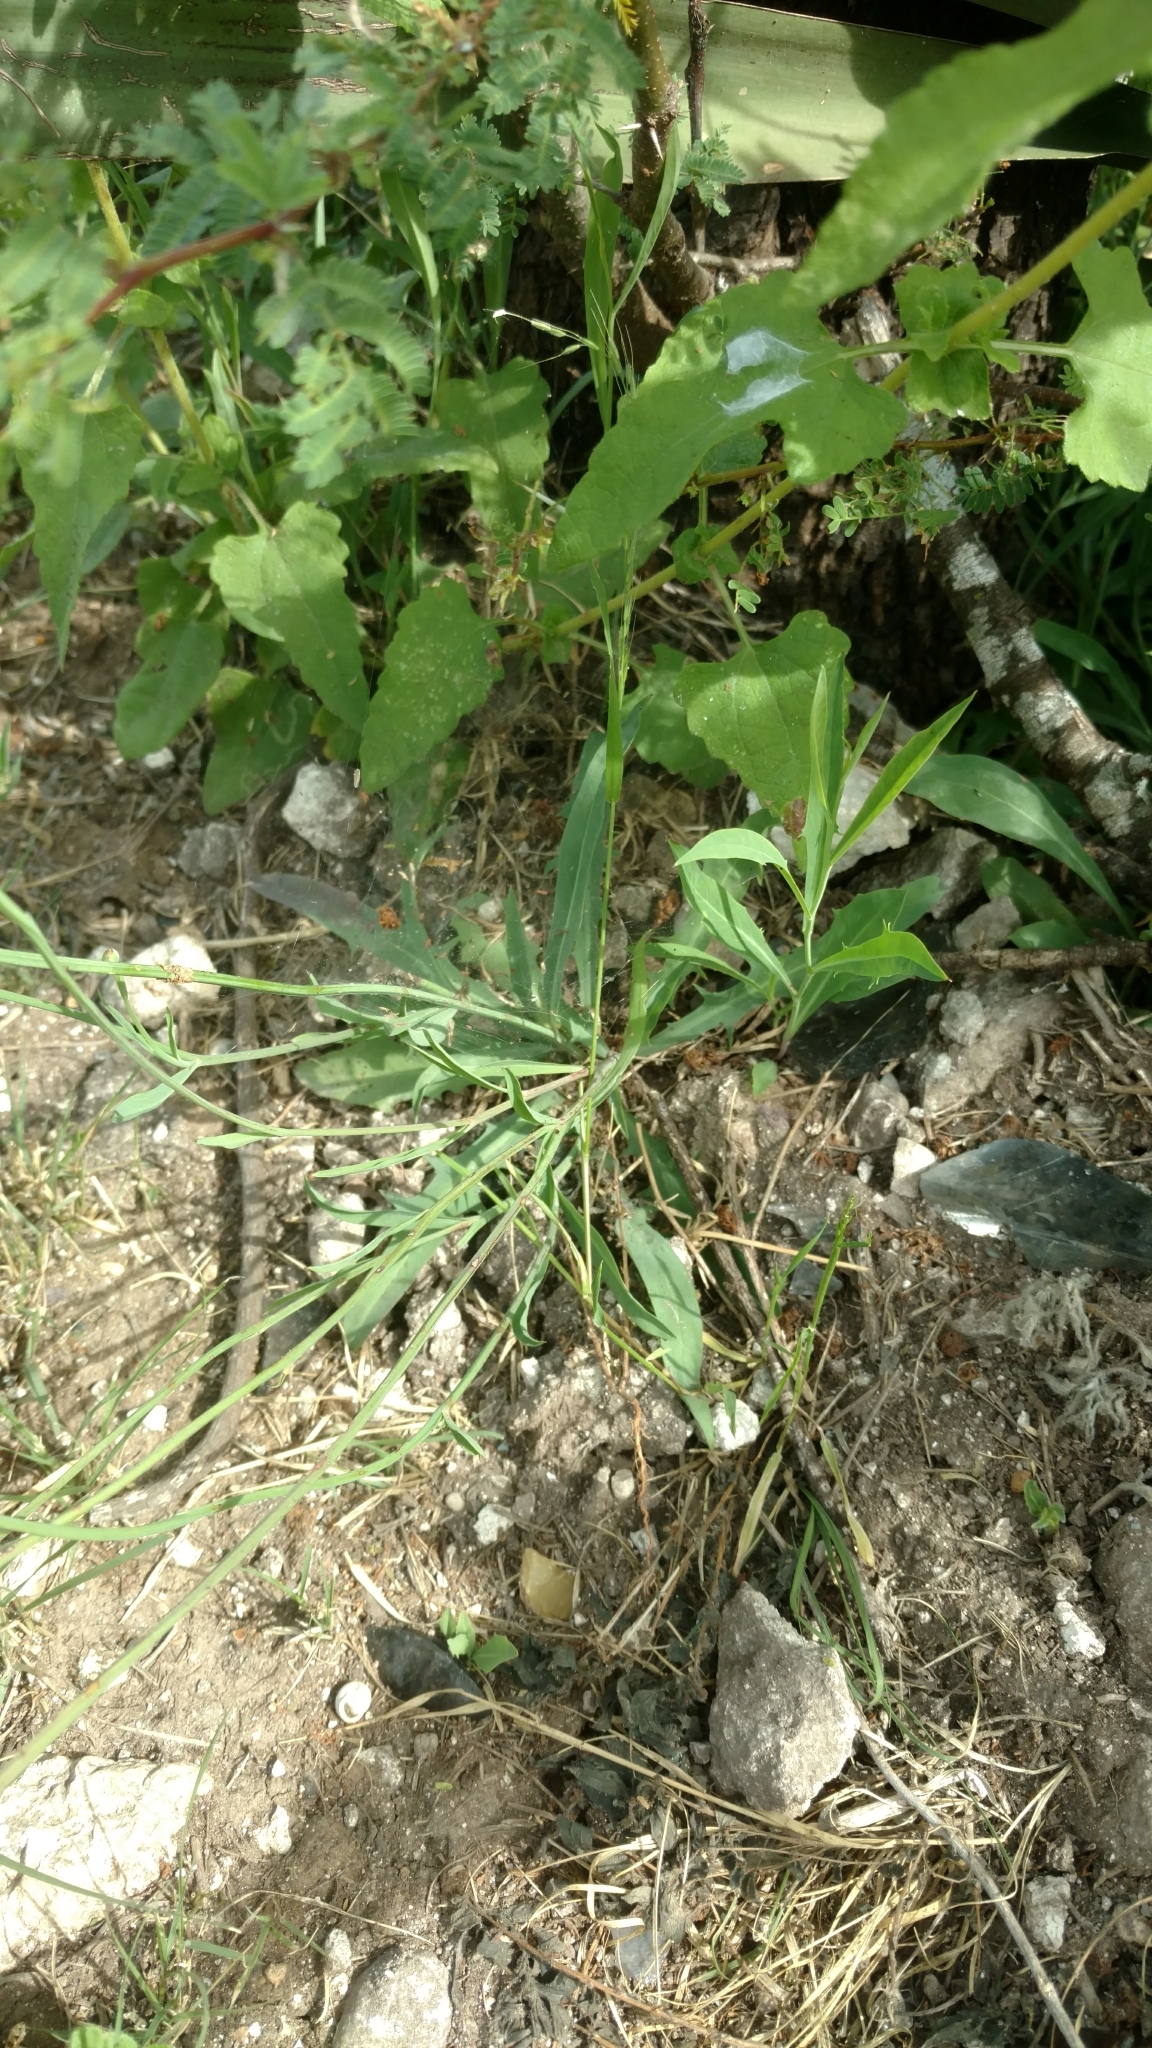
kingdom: Plantae
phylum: Tracheophyta
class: Magnoliopsida
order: Asterales
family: Asteraceae
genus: Pinaropappus
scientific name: Pinaropappus roseus
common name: Rock-lettuce
